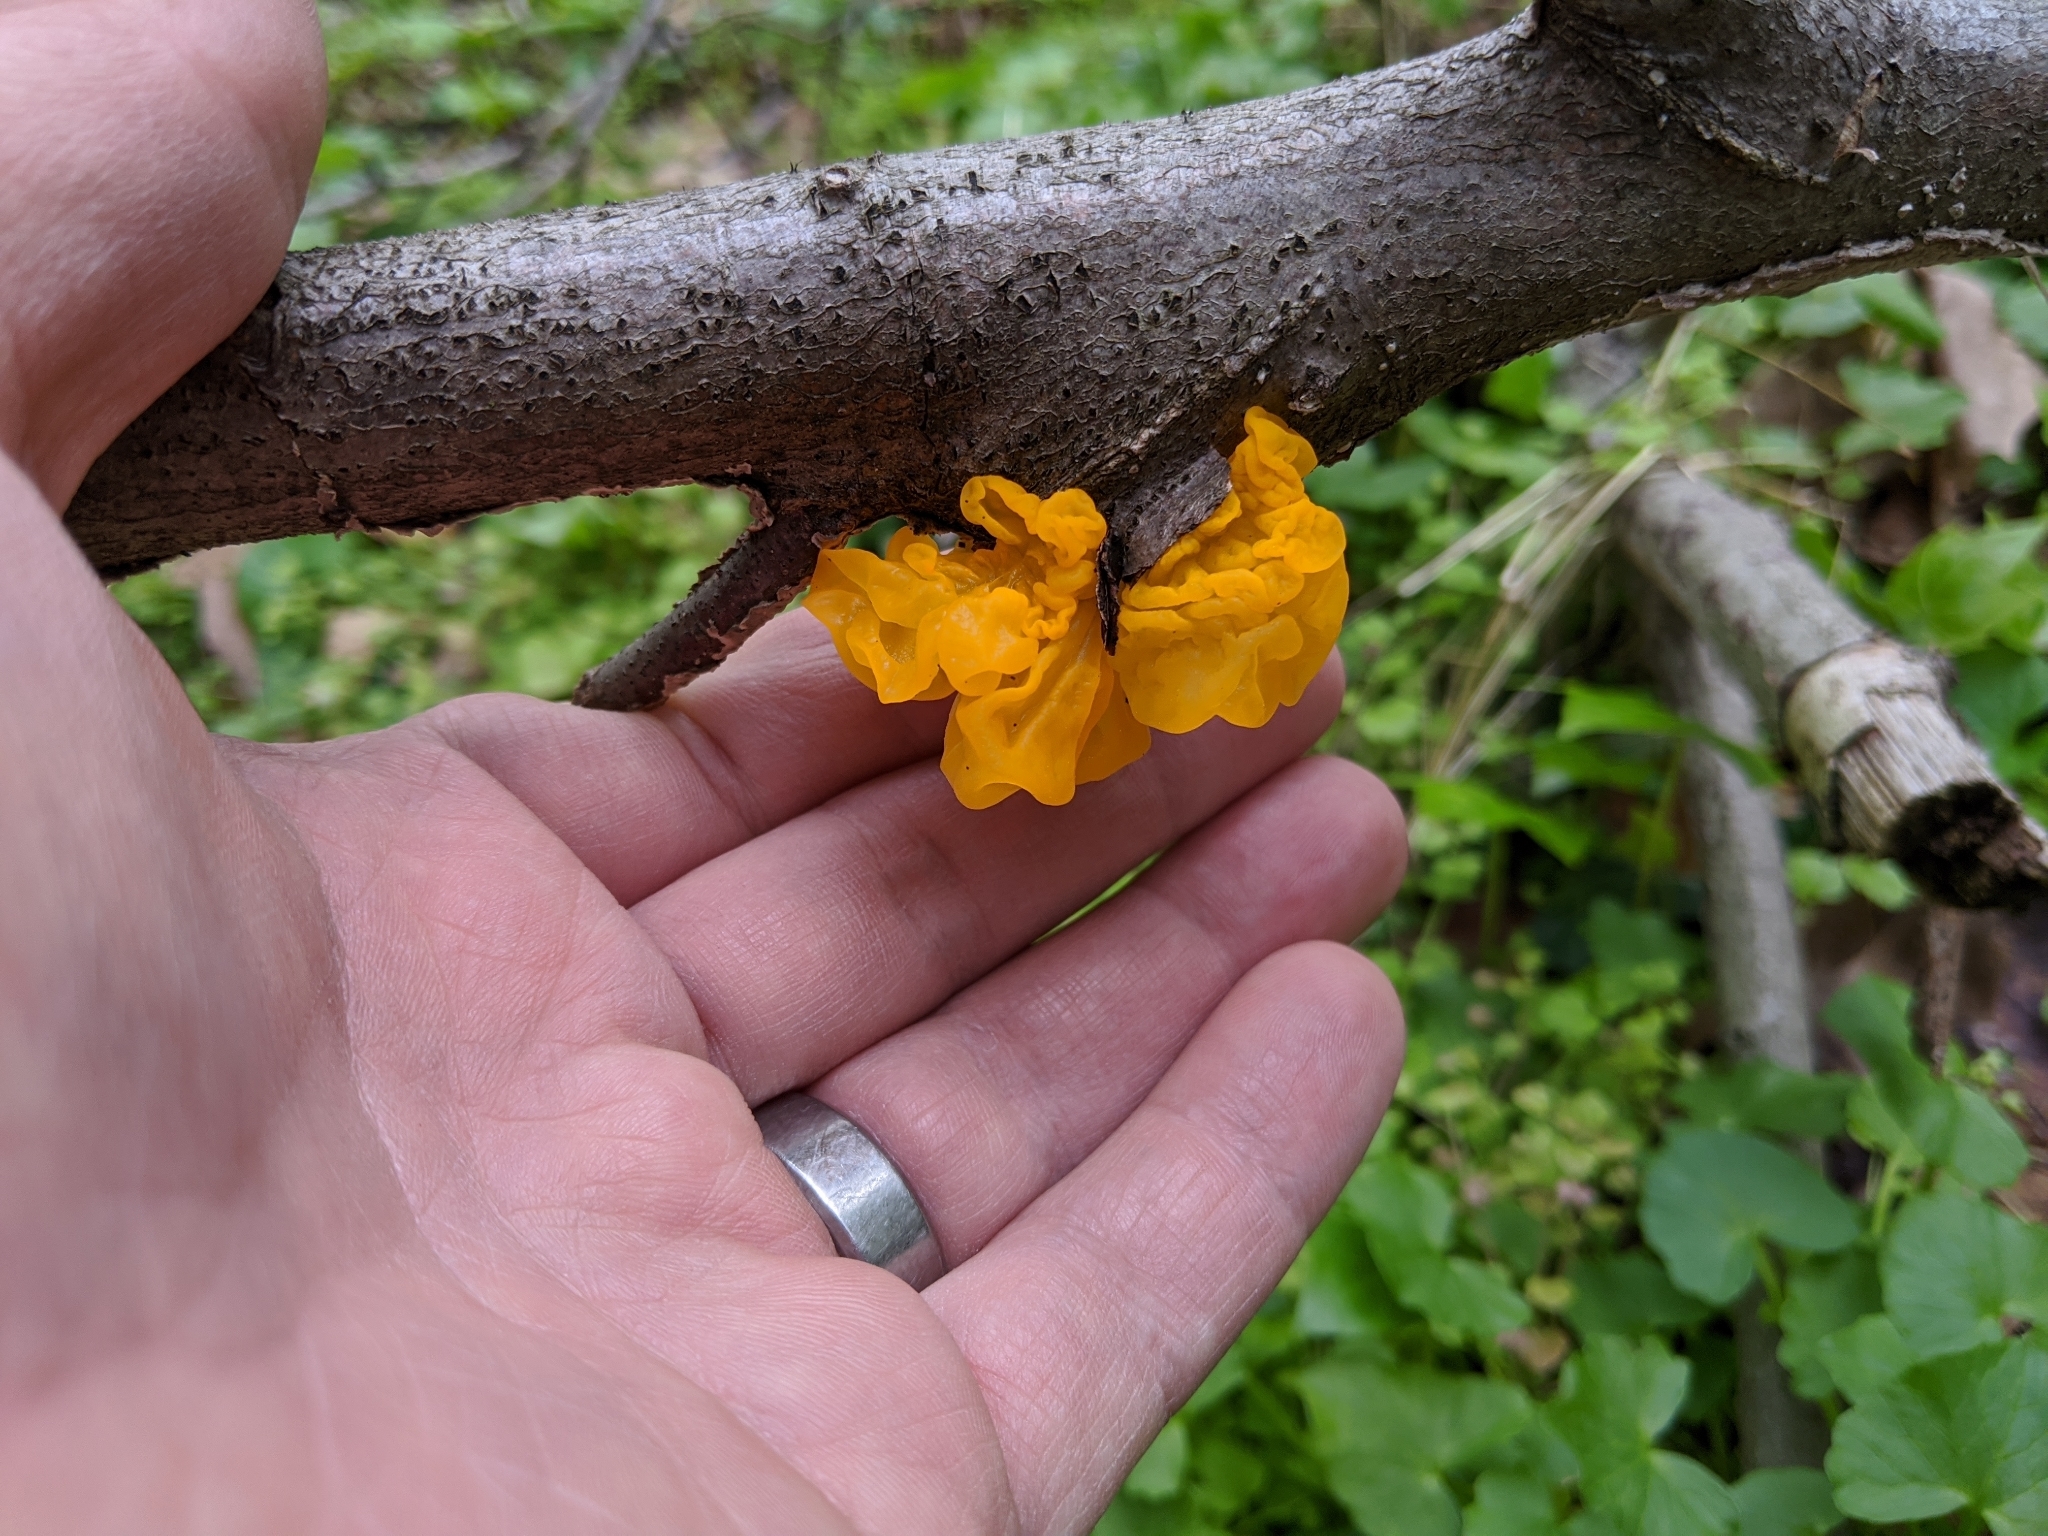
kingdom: Fungi
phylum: Basidiomycota
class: Tremellomycetes
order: Tremellales
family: Tremellaceae
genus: Tremella
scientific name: Tremella mesenterica
